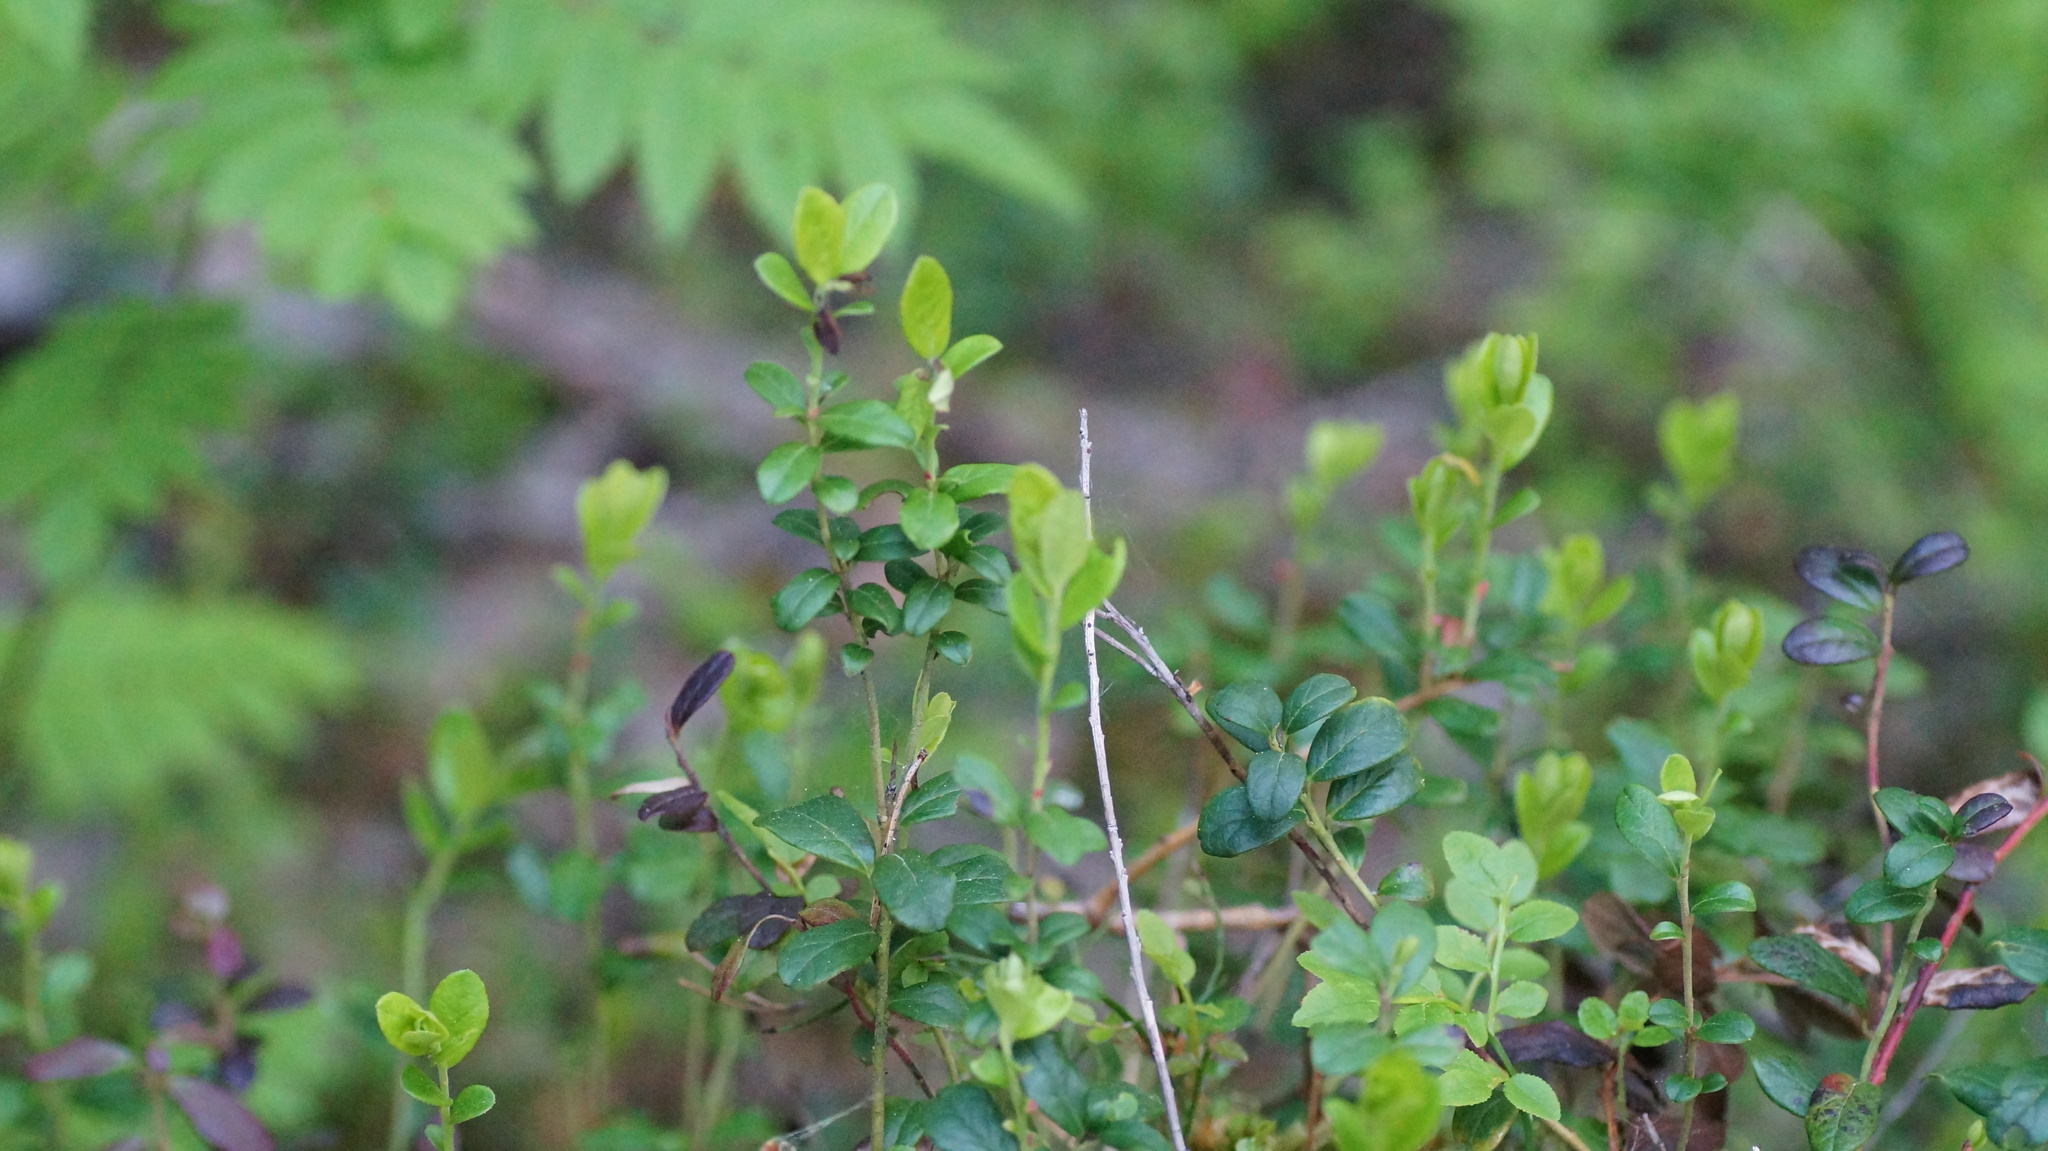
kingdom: Plantae
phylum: Tracheophyta
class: Magnoliopsida
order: Ericales
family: Ericaceae
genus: Vaccinium
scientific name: Vaccinium vitis-idaea
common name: Cowberry
